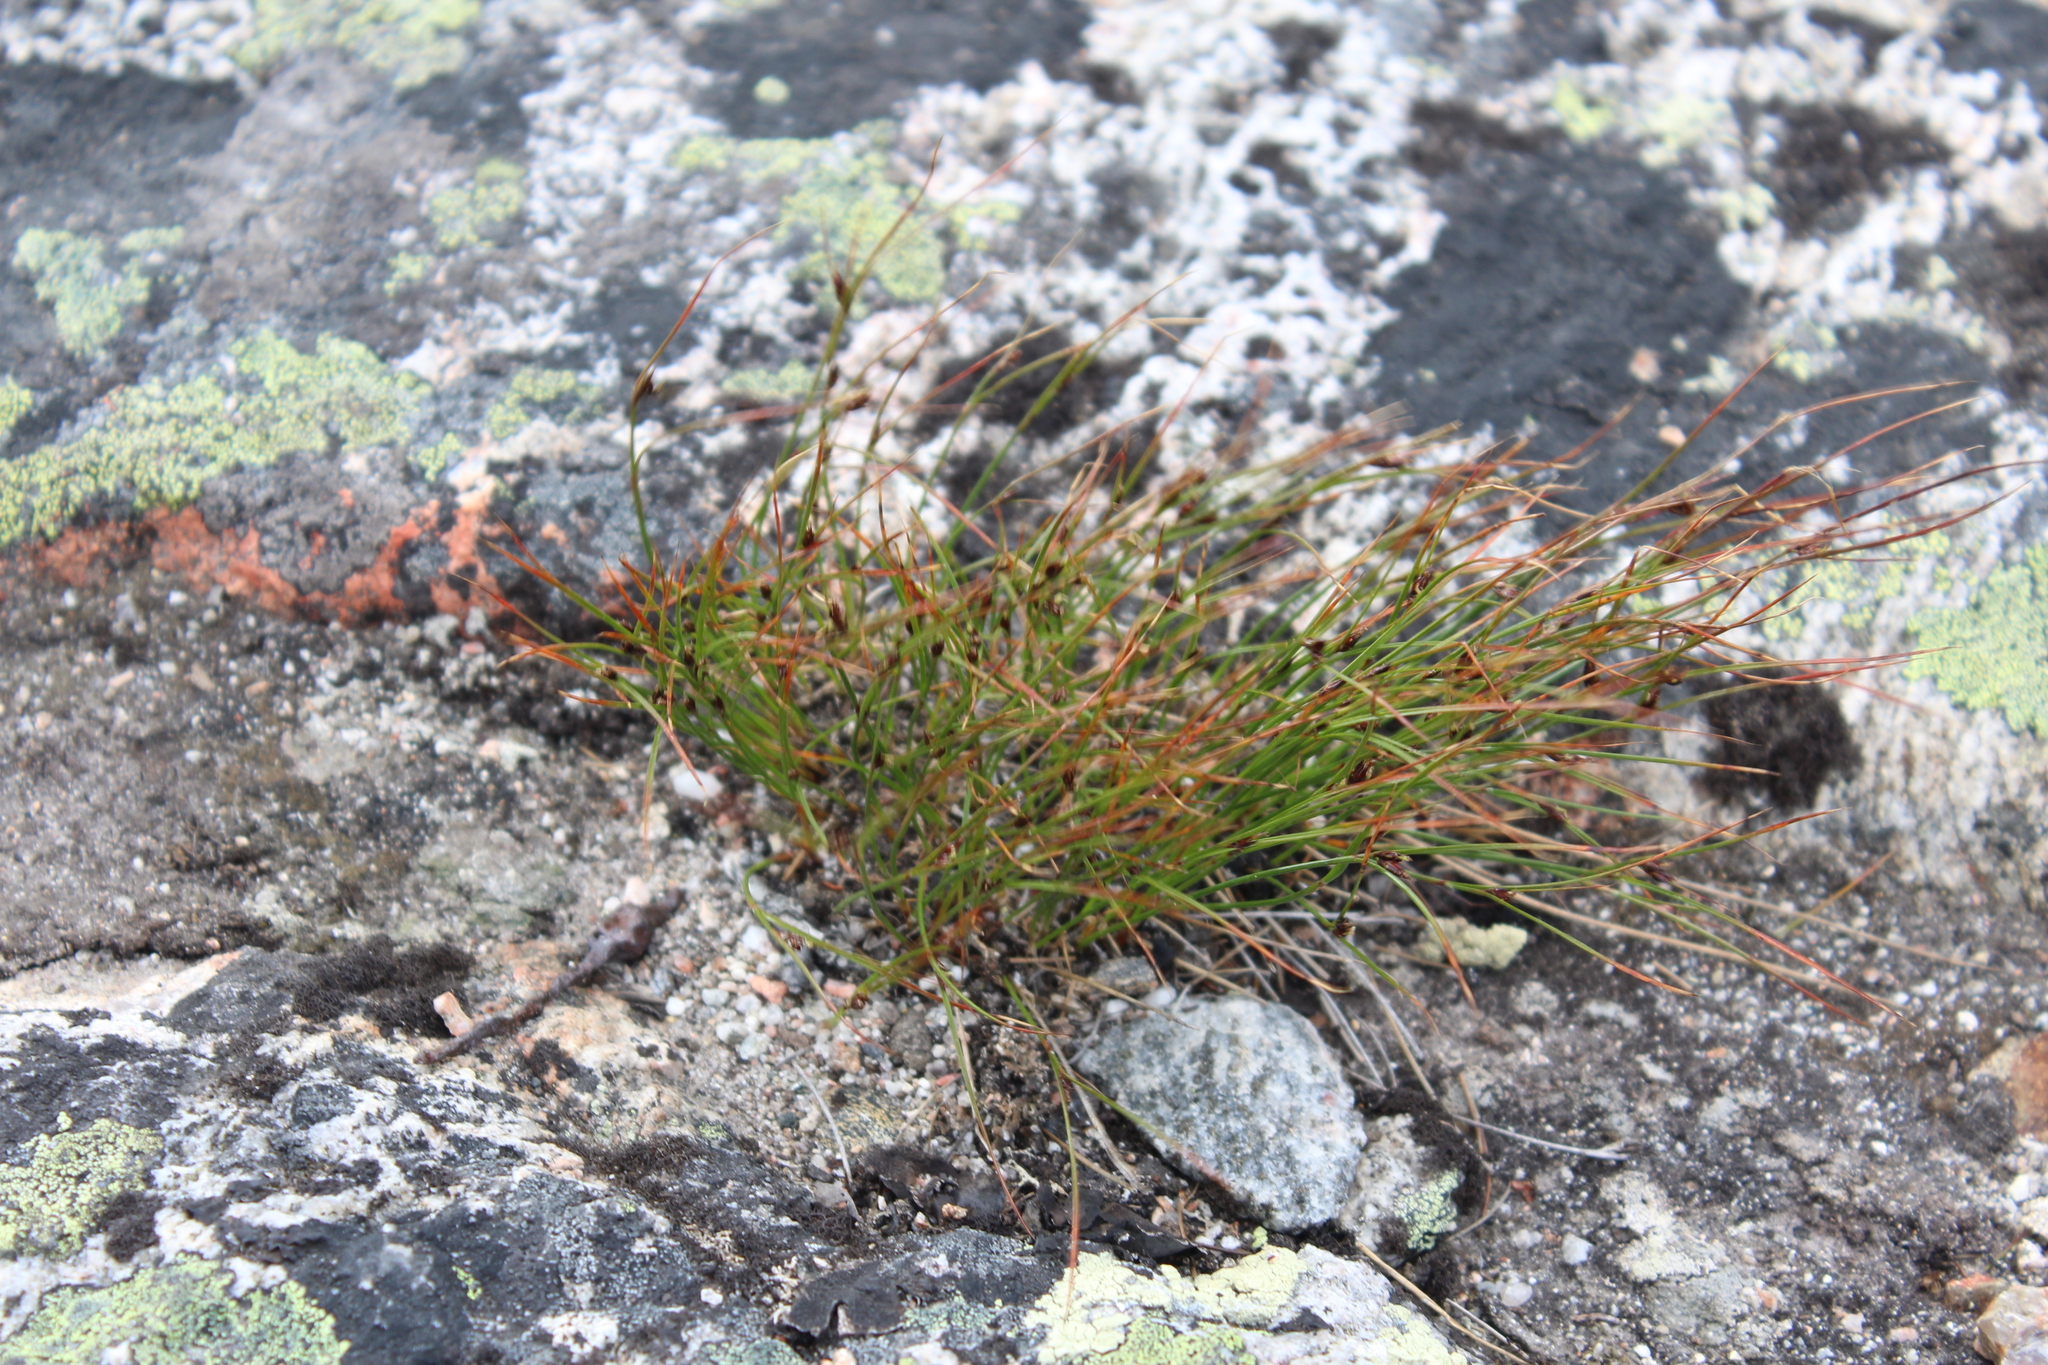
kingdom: Plantae
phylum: Tracheophyta
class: Liliopsida
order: Poales
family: Juncaceae
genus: Oreojuncus
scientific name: Oreojuncus trifidus
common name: Highland rush
